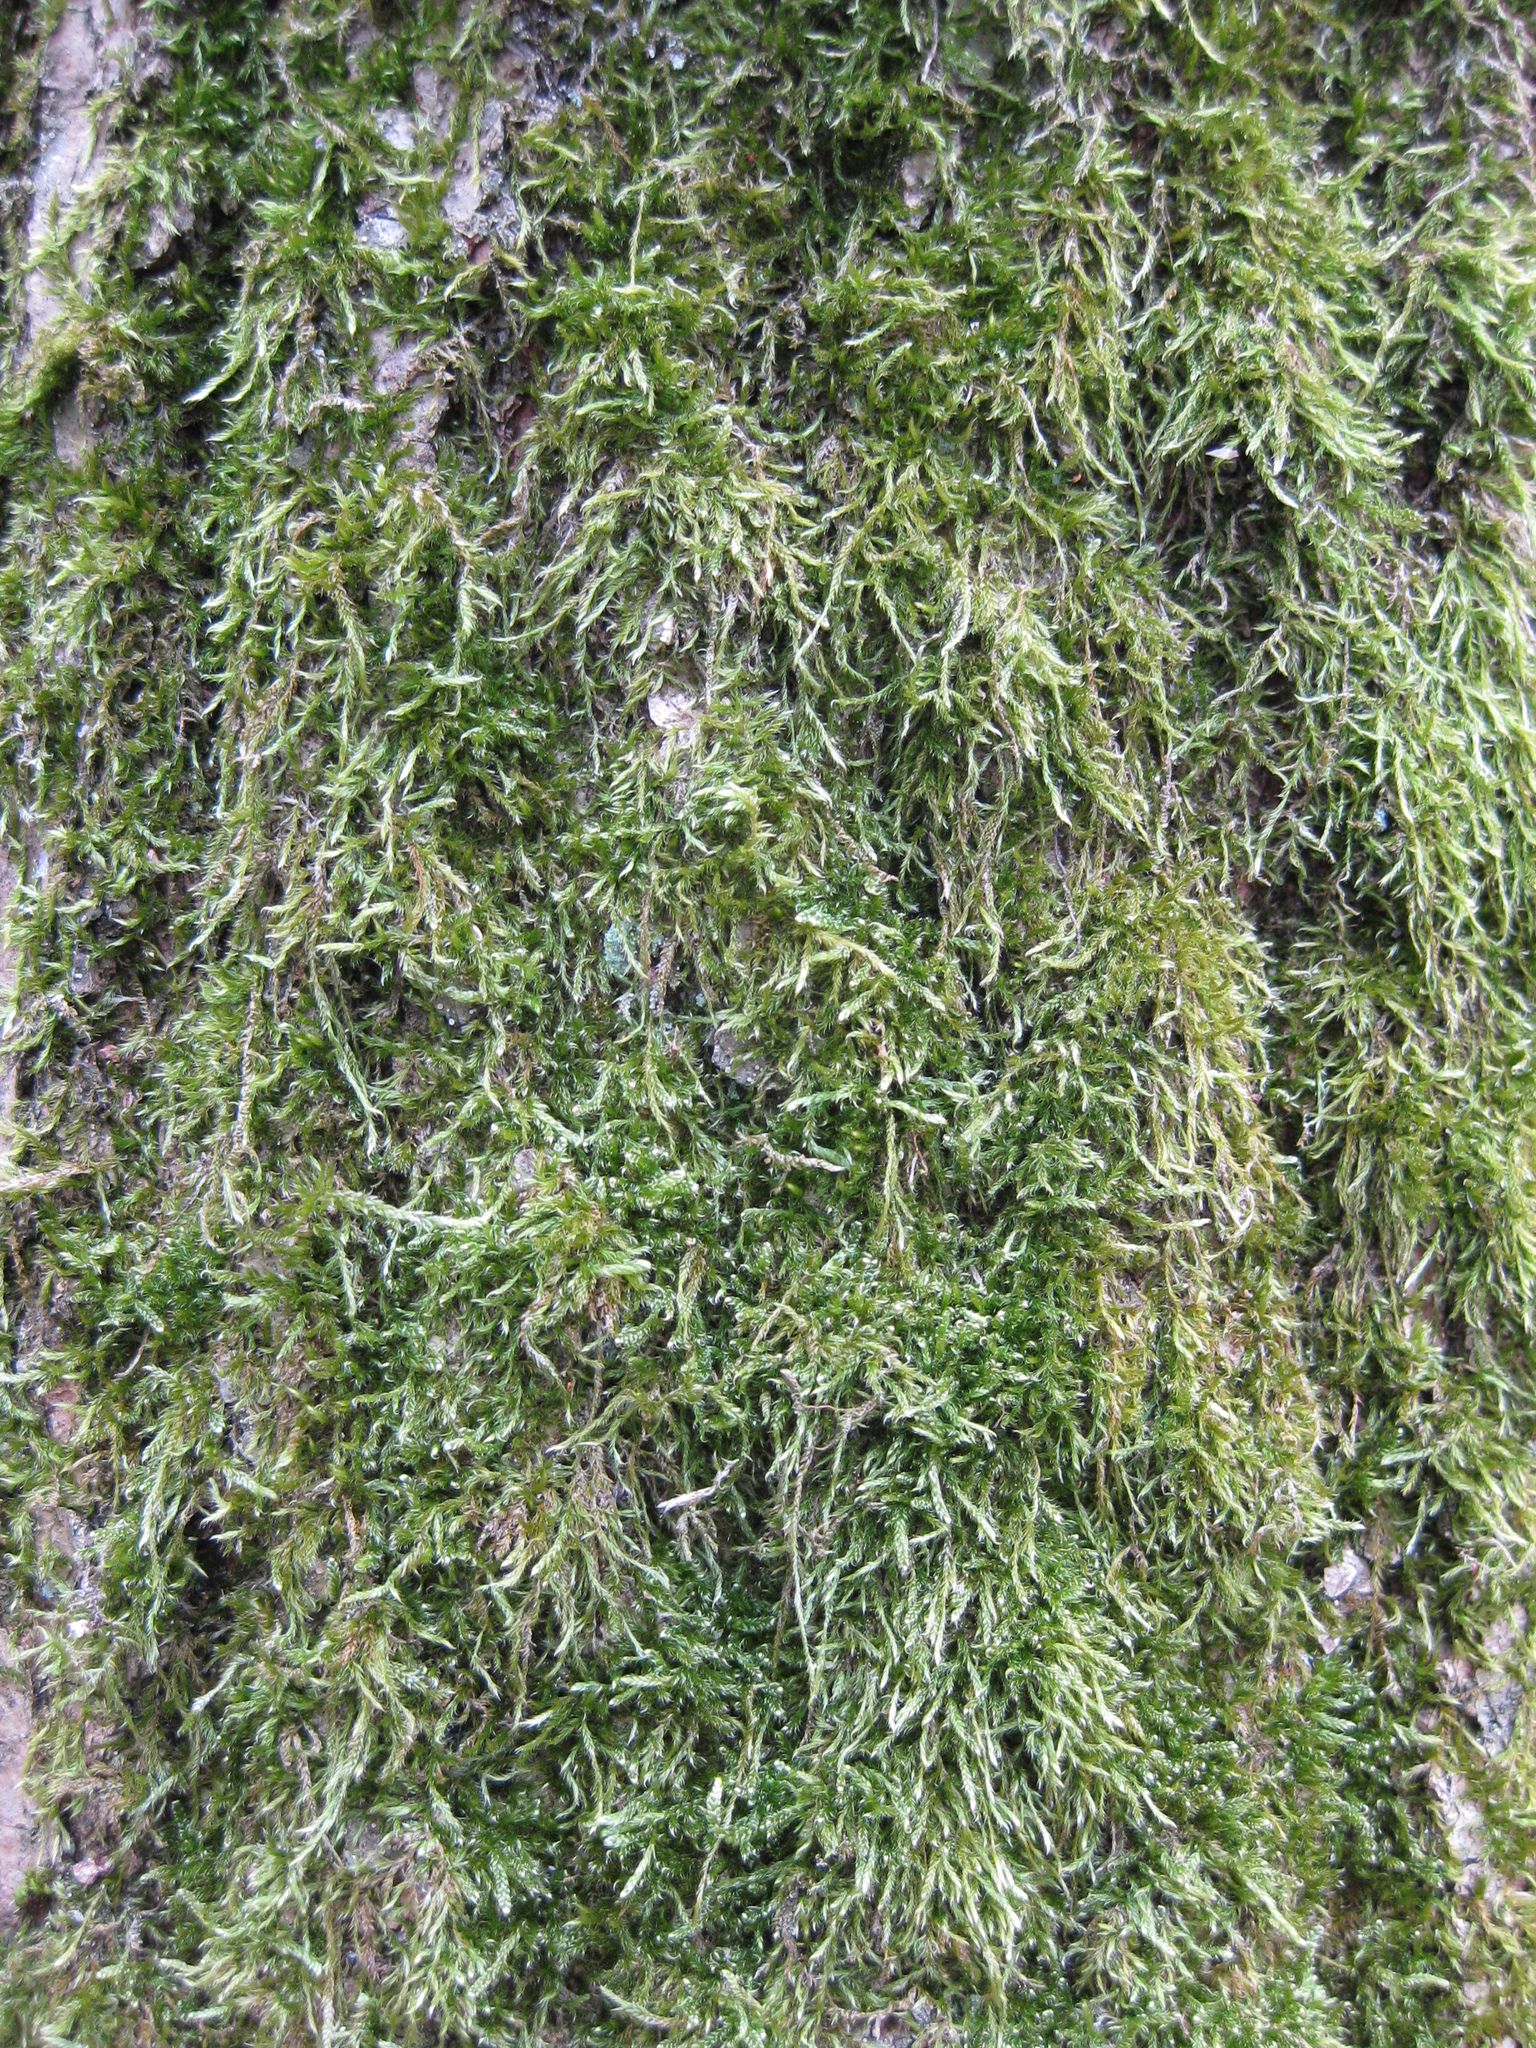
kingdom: Plantae
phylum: Bryophyta
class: Bryopsida
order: Hypnales
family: Hypnaceae
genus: Hypnum
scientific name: Hypnum cupressiforme
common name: Cypress-leaved plait-moss
